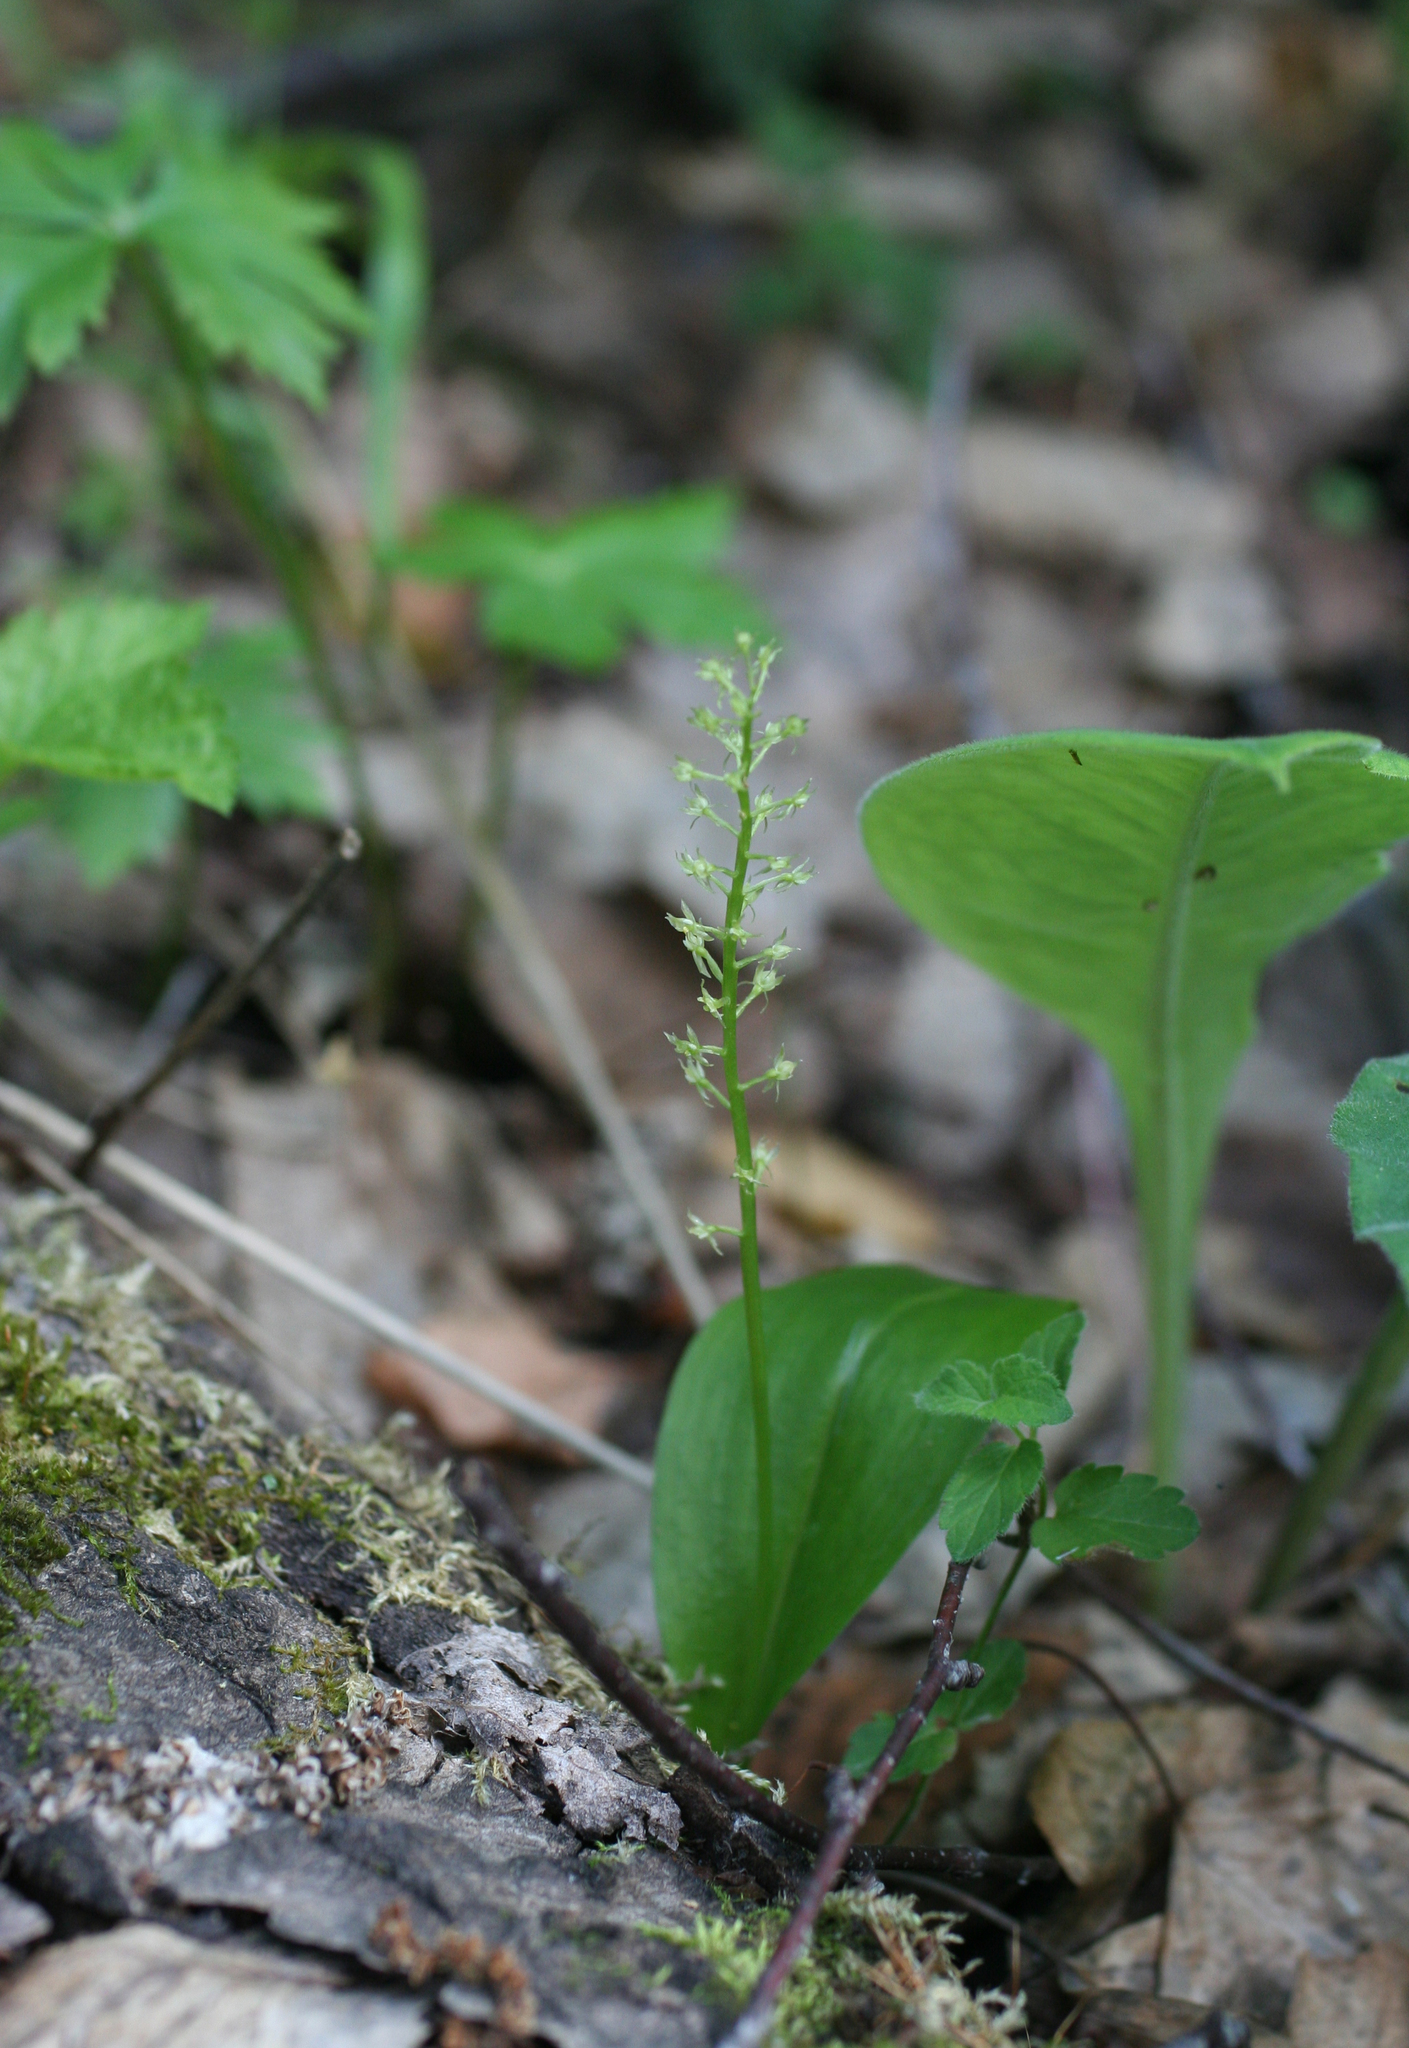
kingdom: Plantae
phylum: Tracheophyta
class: Liliopsida
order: Asparagales
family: Orchidaceae
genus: Malaxis
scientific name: Malaxis monophyllos
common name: White adder's-mouth
